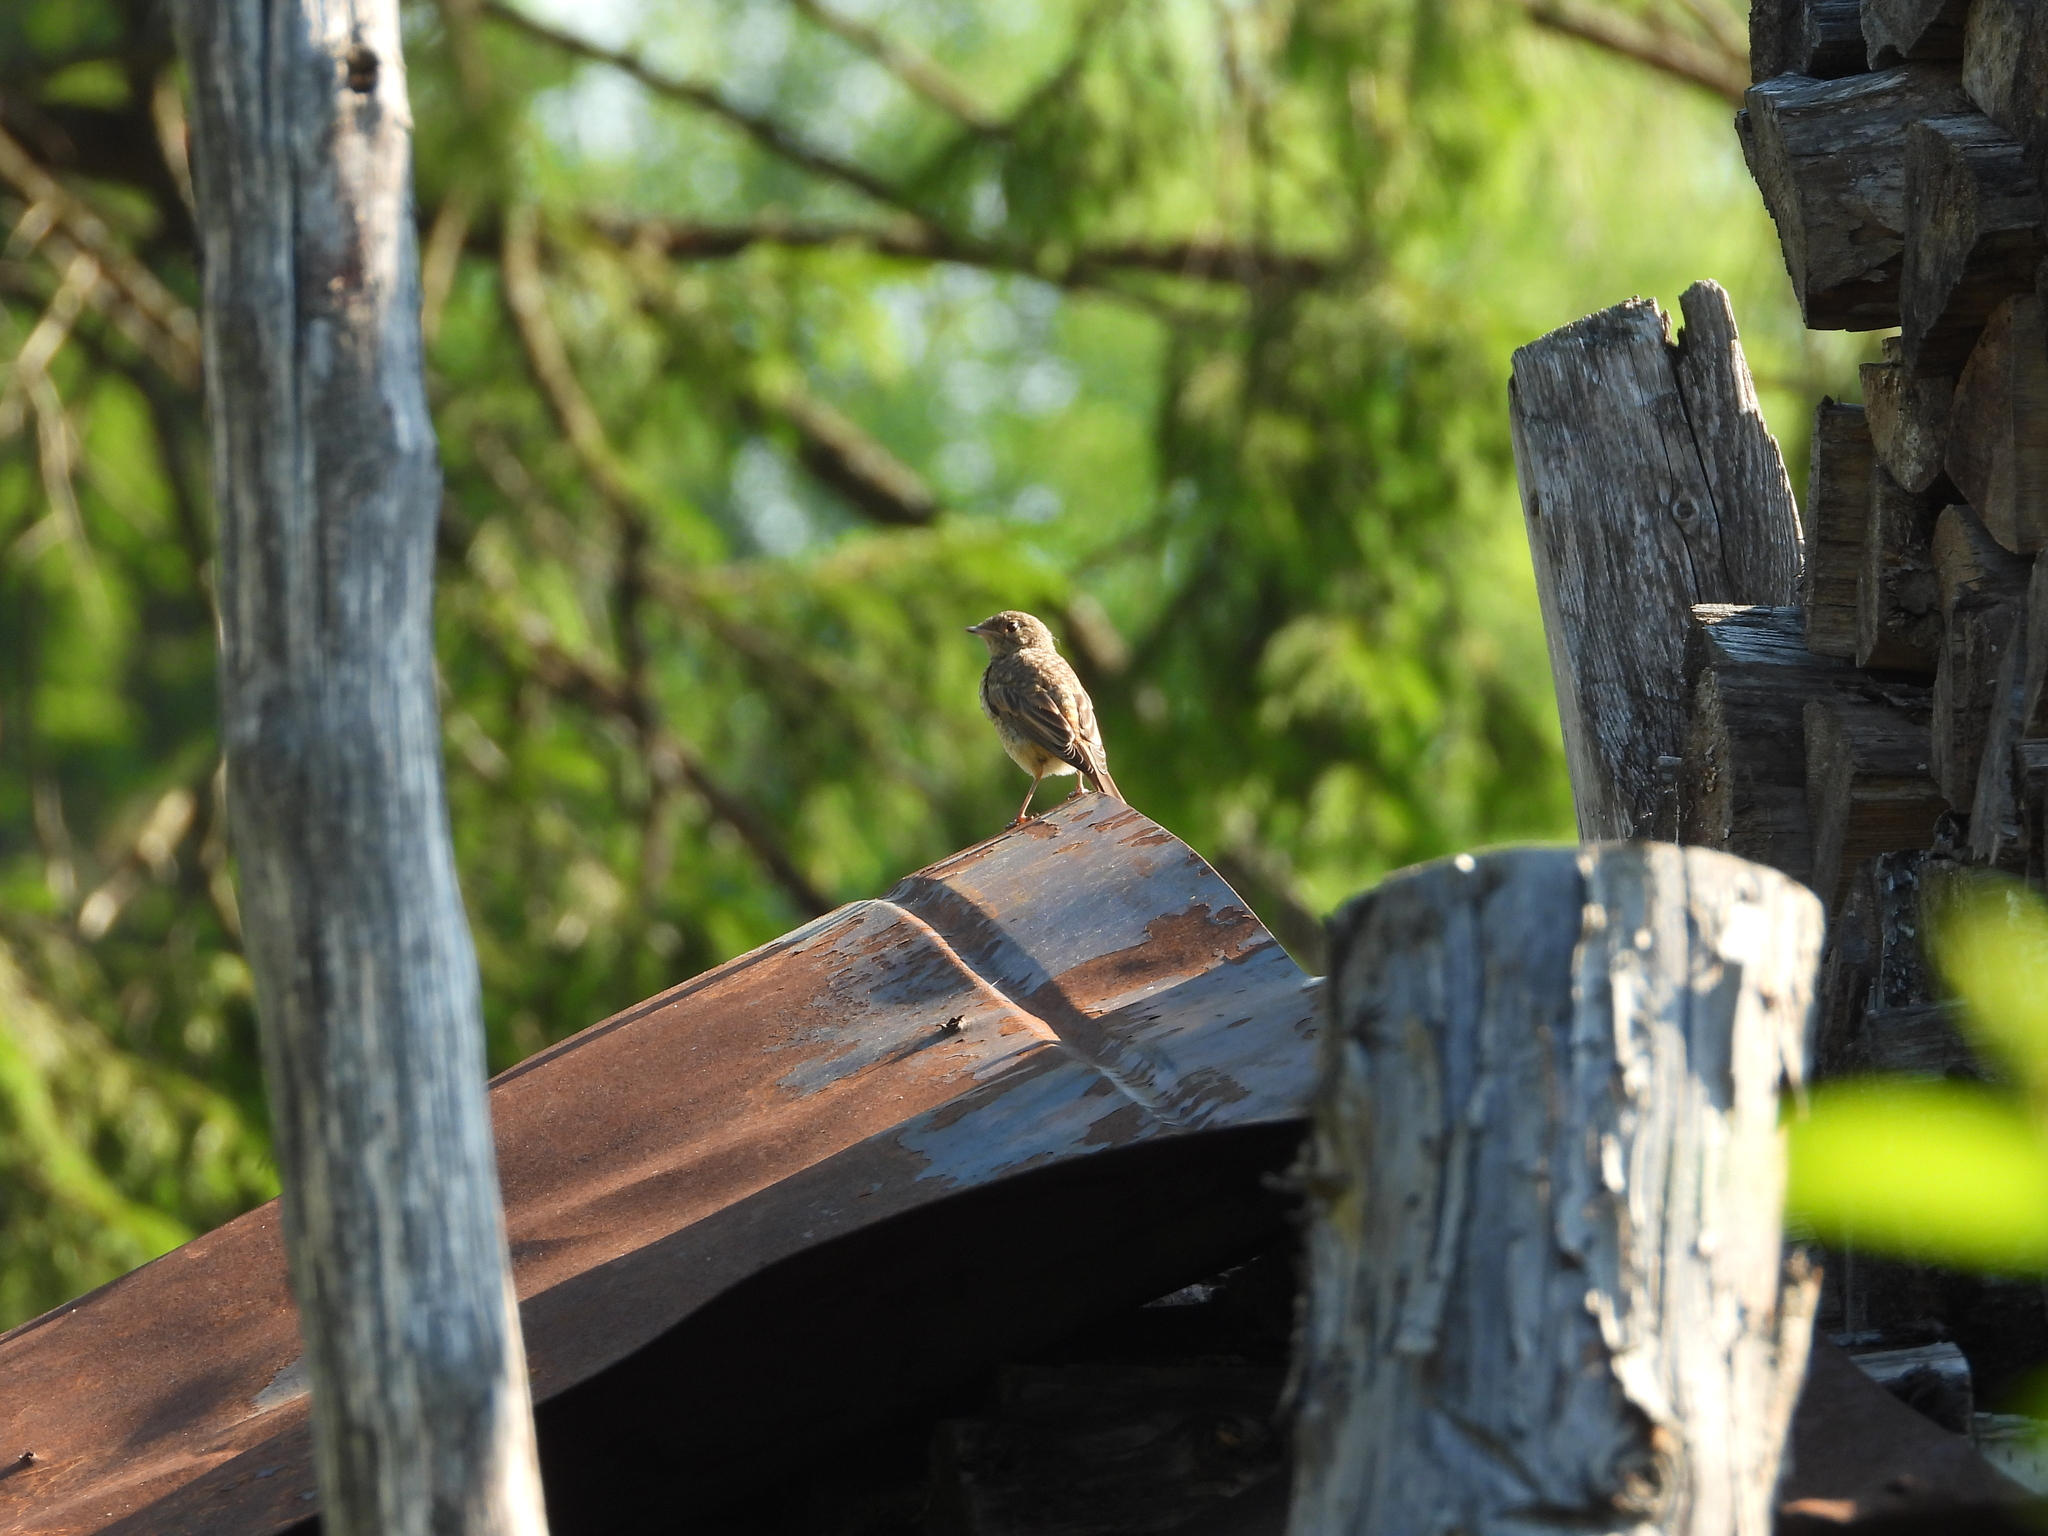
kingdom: Animalia
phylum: Chordata
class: Aves
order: Passeriformes
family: Muscicapidae
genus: Phoenicurus
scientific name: Phoenicurus phoenicurus
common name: Common redstart
